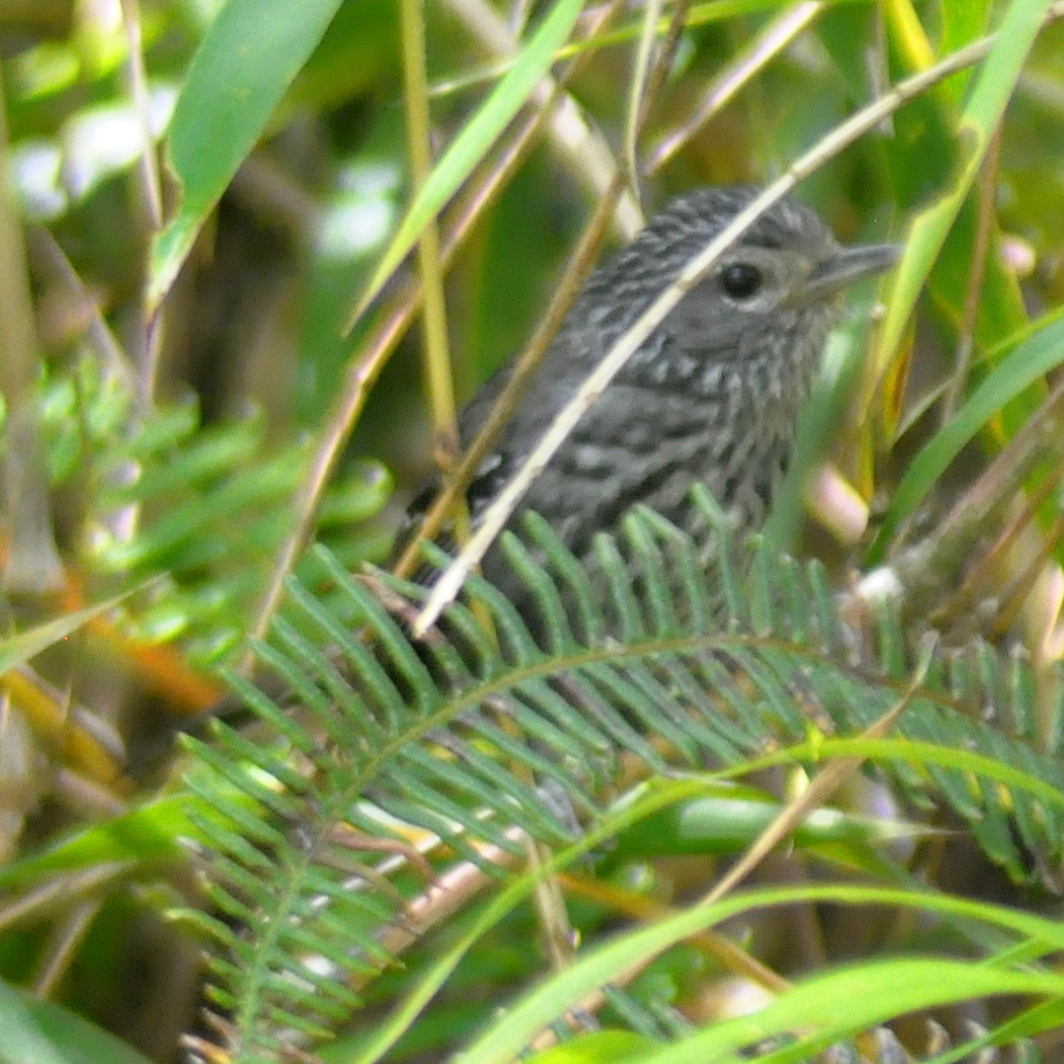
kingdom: Animalia
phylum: Chordata
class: Aves
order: Passeriformes
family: Thamnophilidae
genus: Drymophila
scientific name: Drymophila malura
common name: Dusky-tailed antbird
